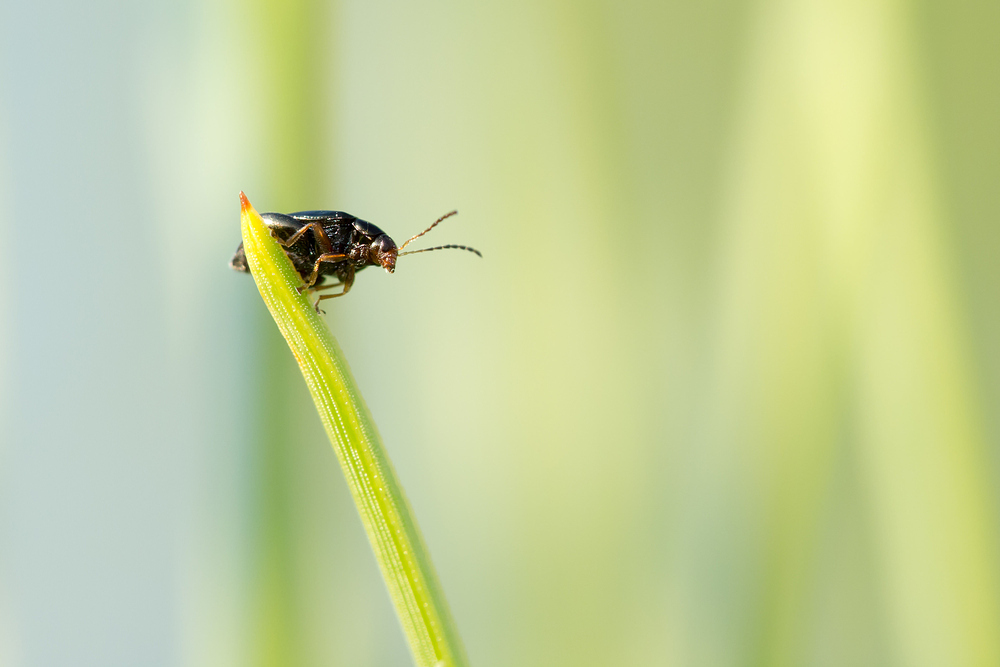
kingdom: Animalia
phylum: Arthropoda
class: Insecta
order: Coleoptera
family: Chrysomelidae
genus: Psylliodes
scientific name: Psylliodes chrysocephalus
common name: Cabbage-stem flea beetle
